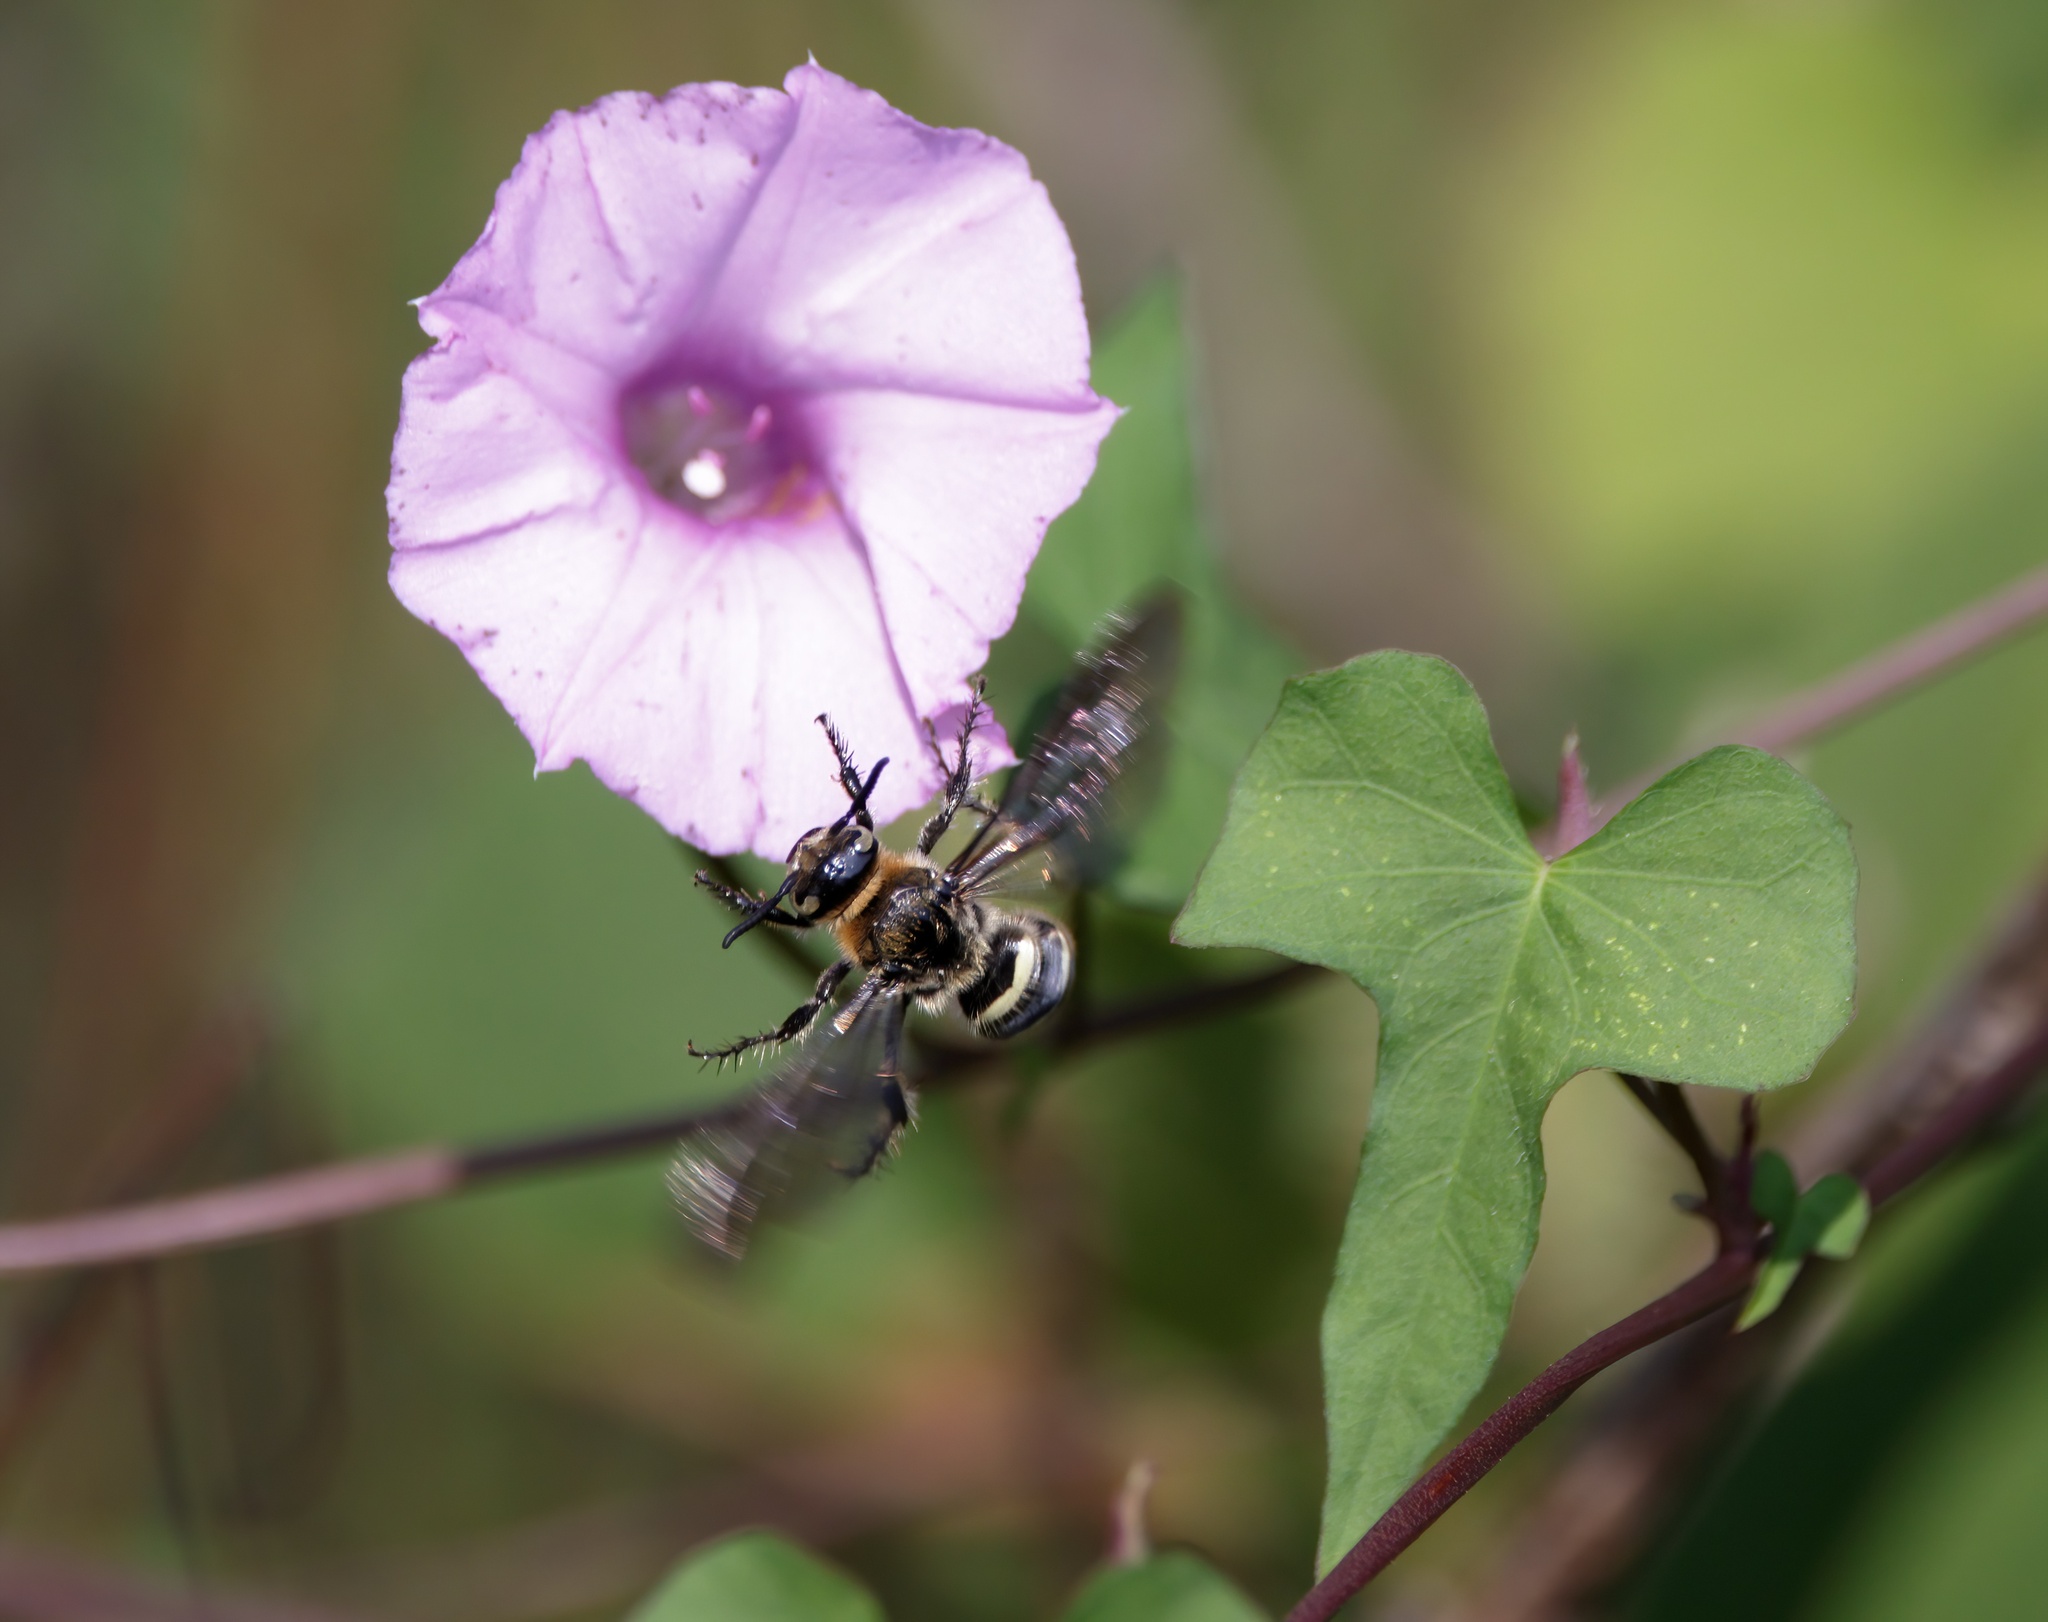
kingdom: Animalia
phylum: Arthropoda
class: Insecta
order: Hymenoptera
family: Scoliidae
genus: Dielis
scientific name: Dielis
